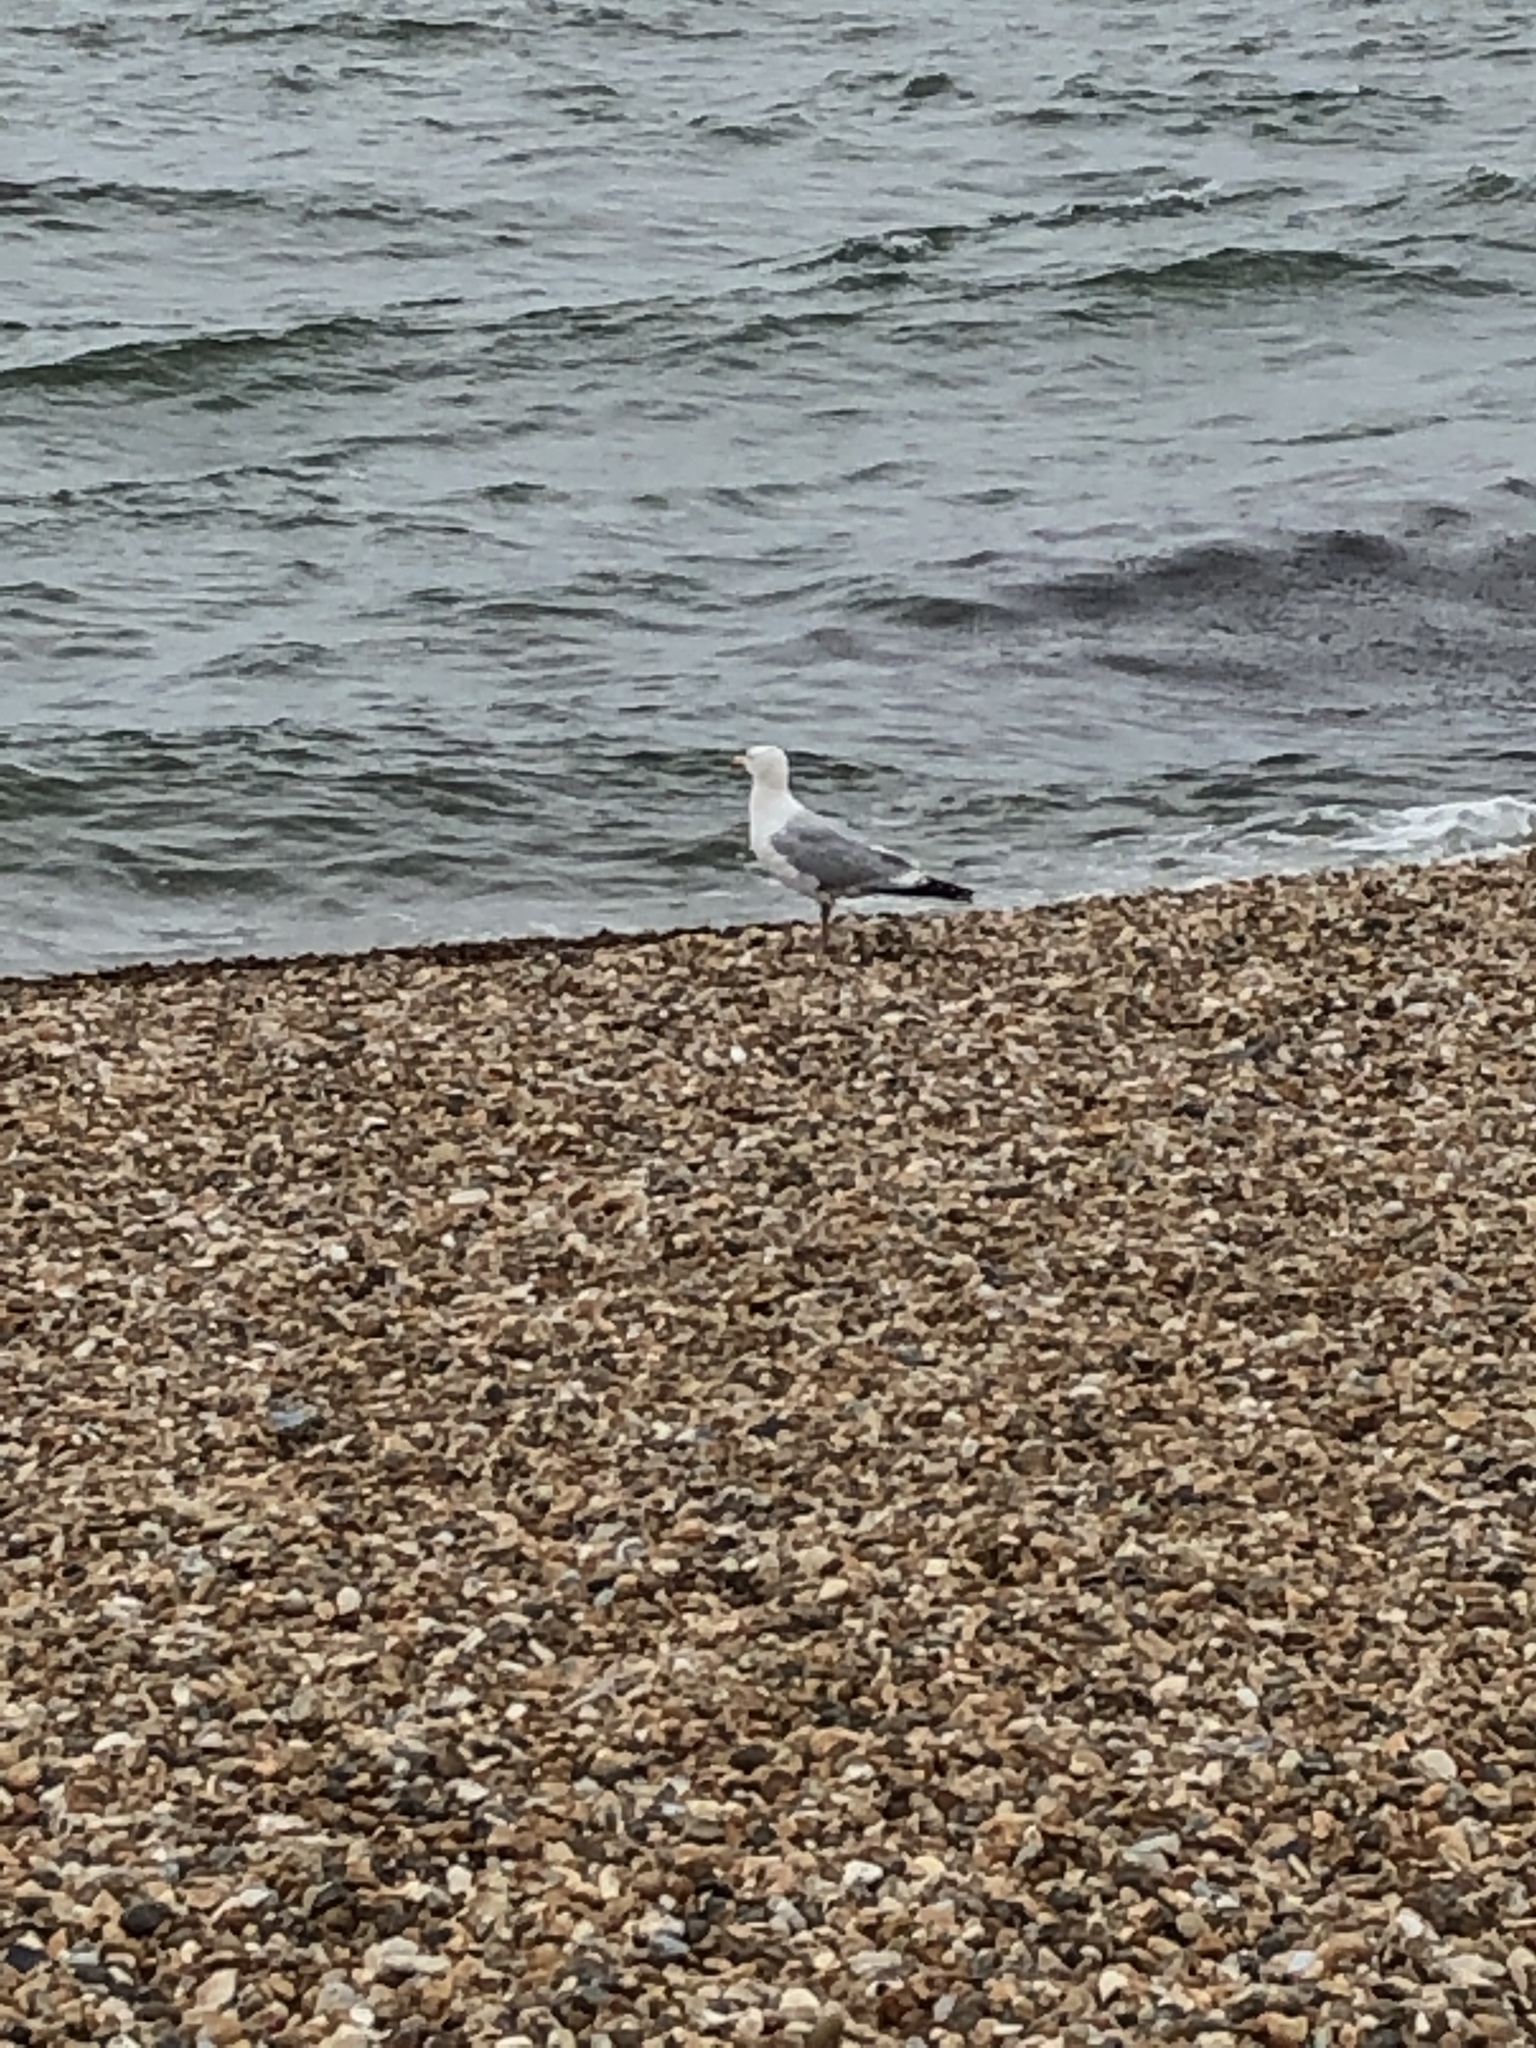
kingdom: Animalia
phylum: Chordata
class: Aves
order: Charadriiformes
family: Laridae
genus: Larus
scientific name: Larus argentatus
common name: Herring gull
